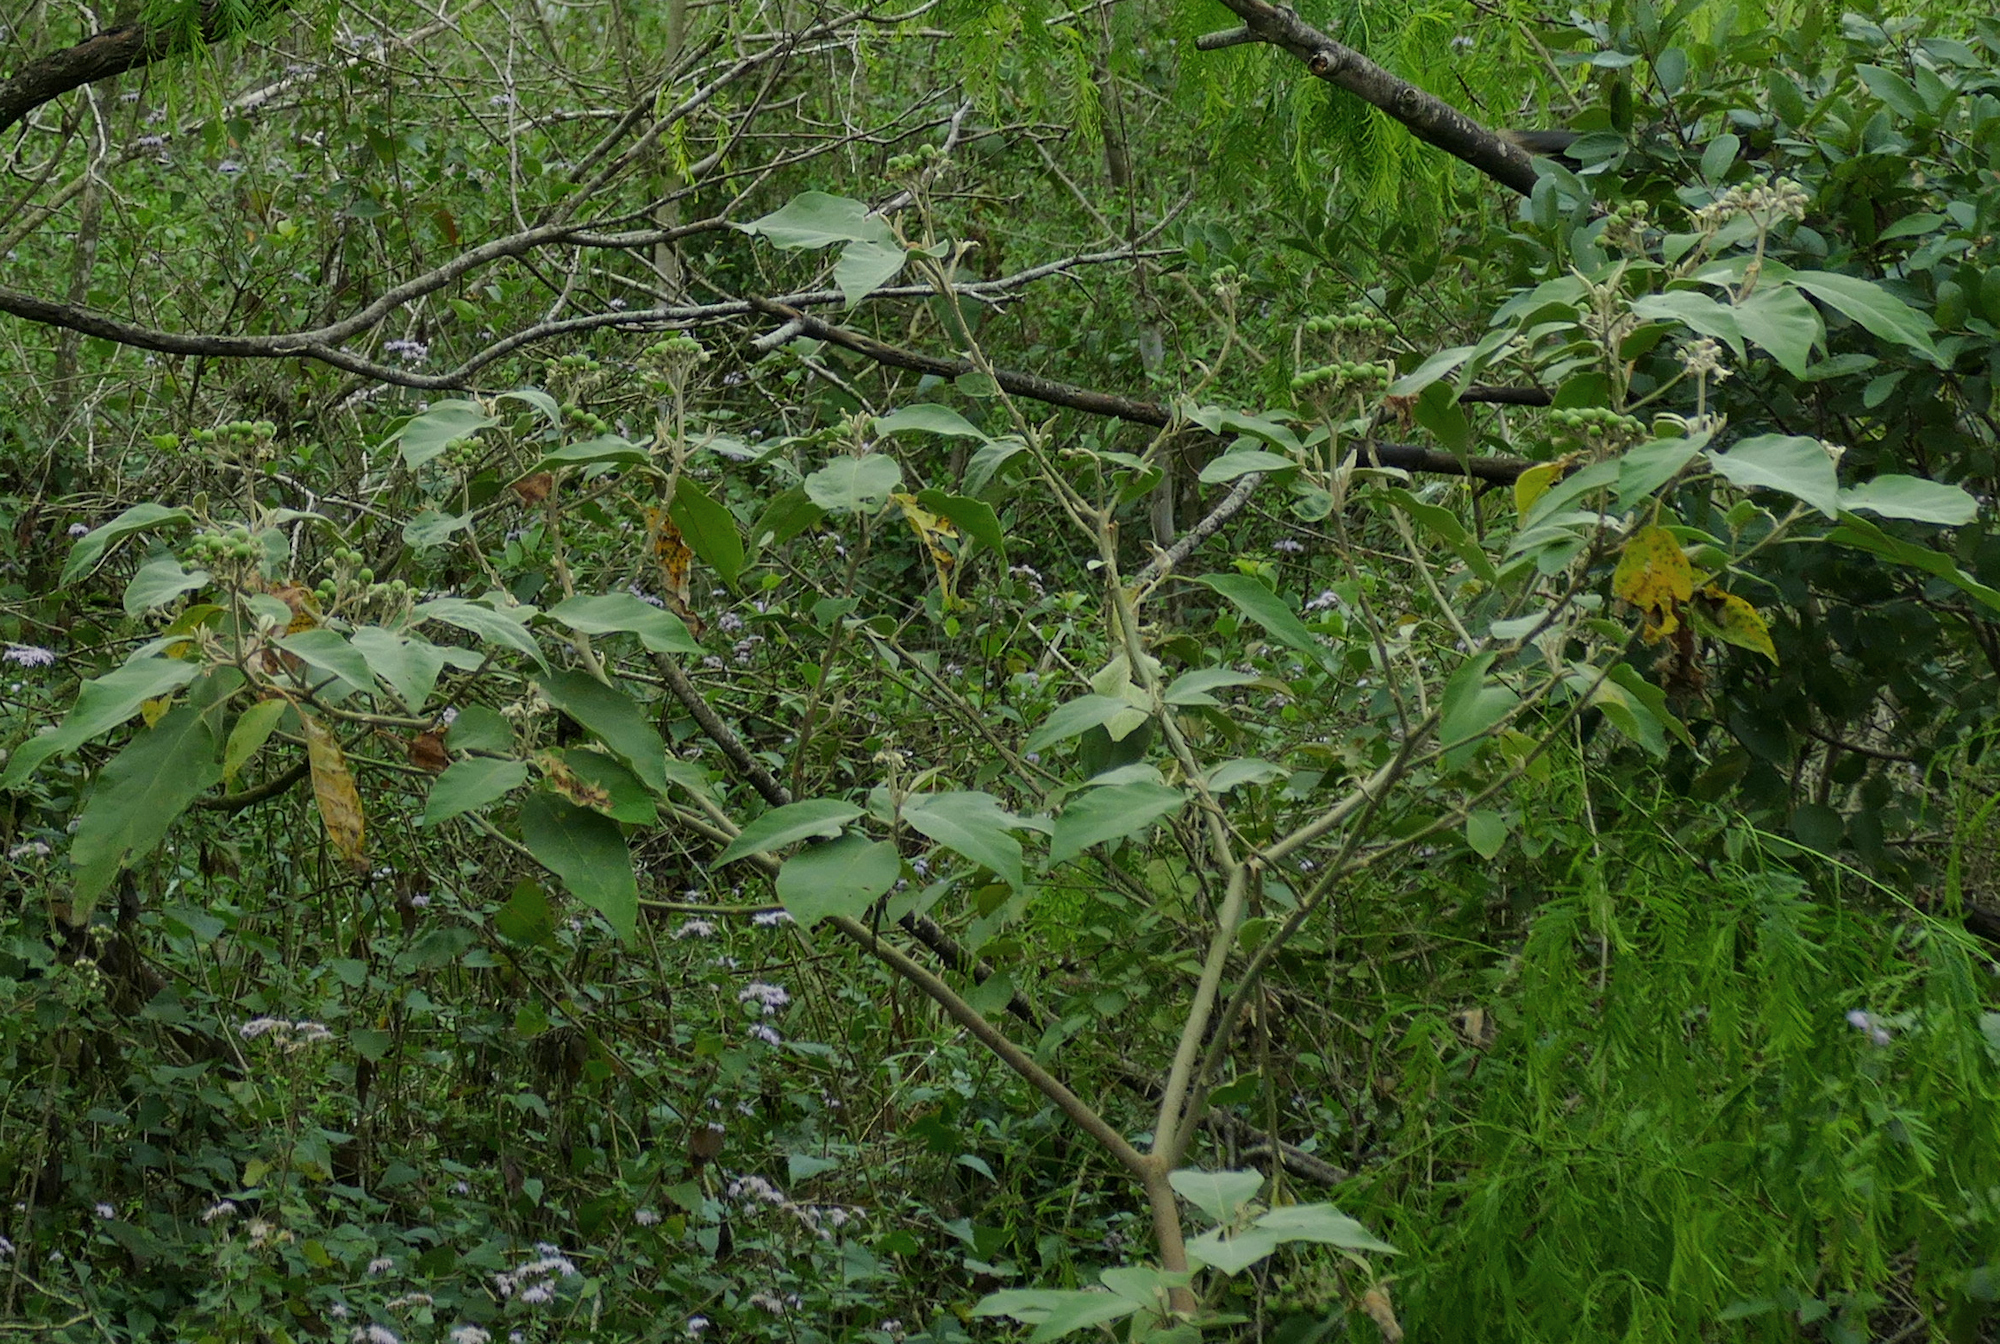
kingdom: Plantae
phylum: Tracheophyta
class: Magnoliopsida
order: Solanales
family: Solanaceae
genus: Solanum
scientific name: Solanum erianthum
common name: Tobacco-tree
